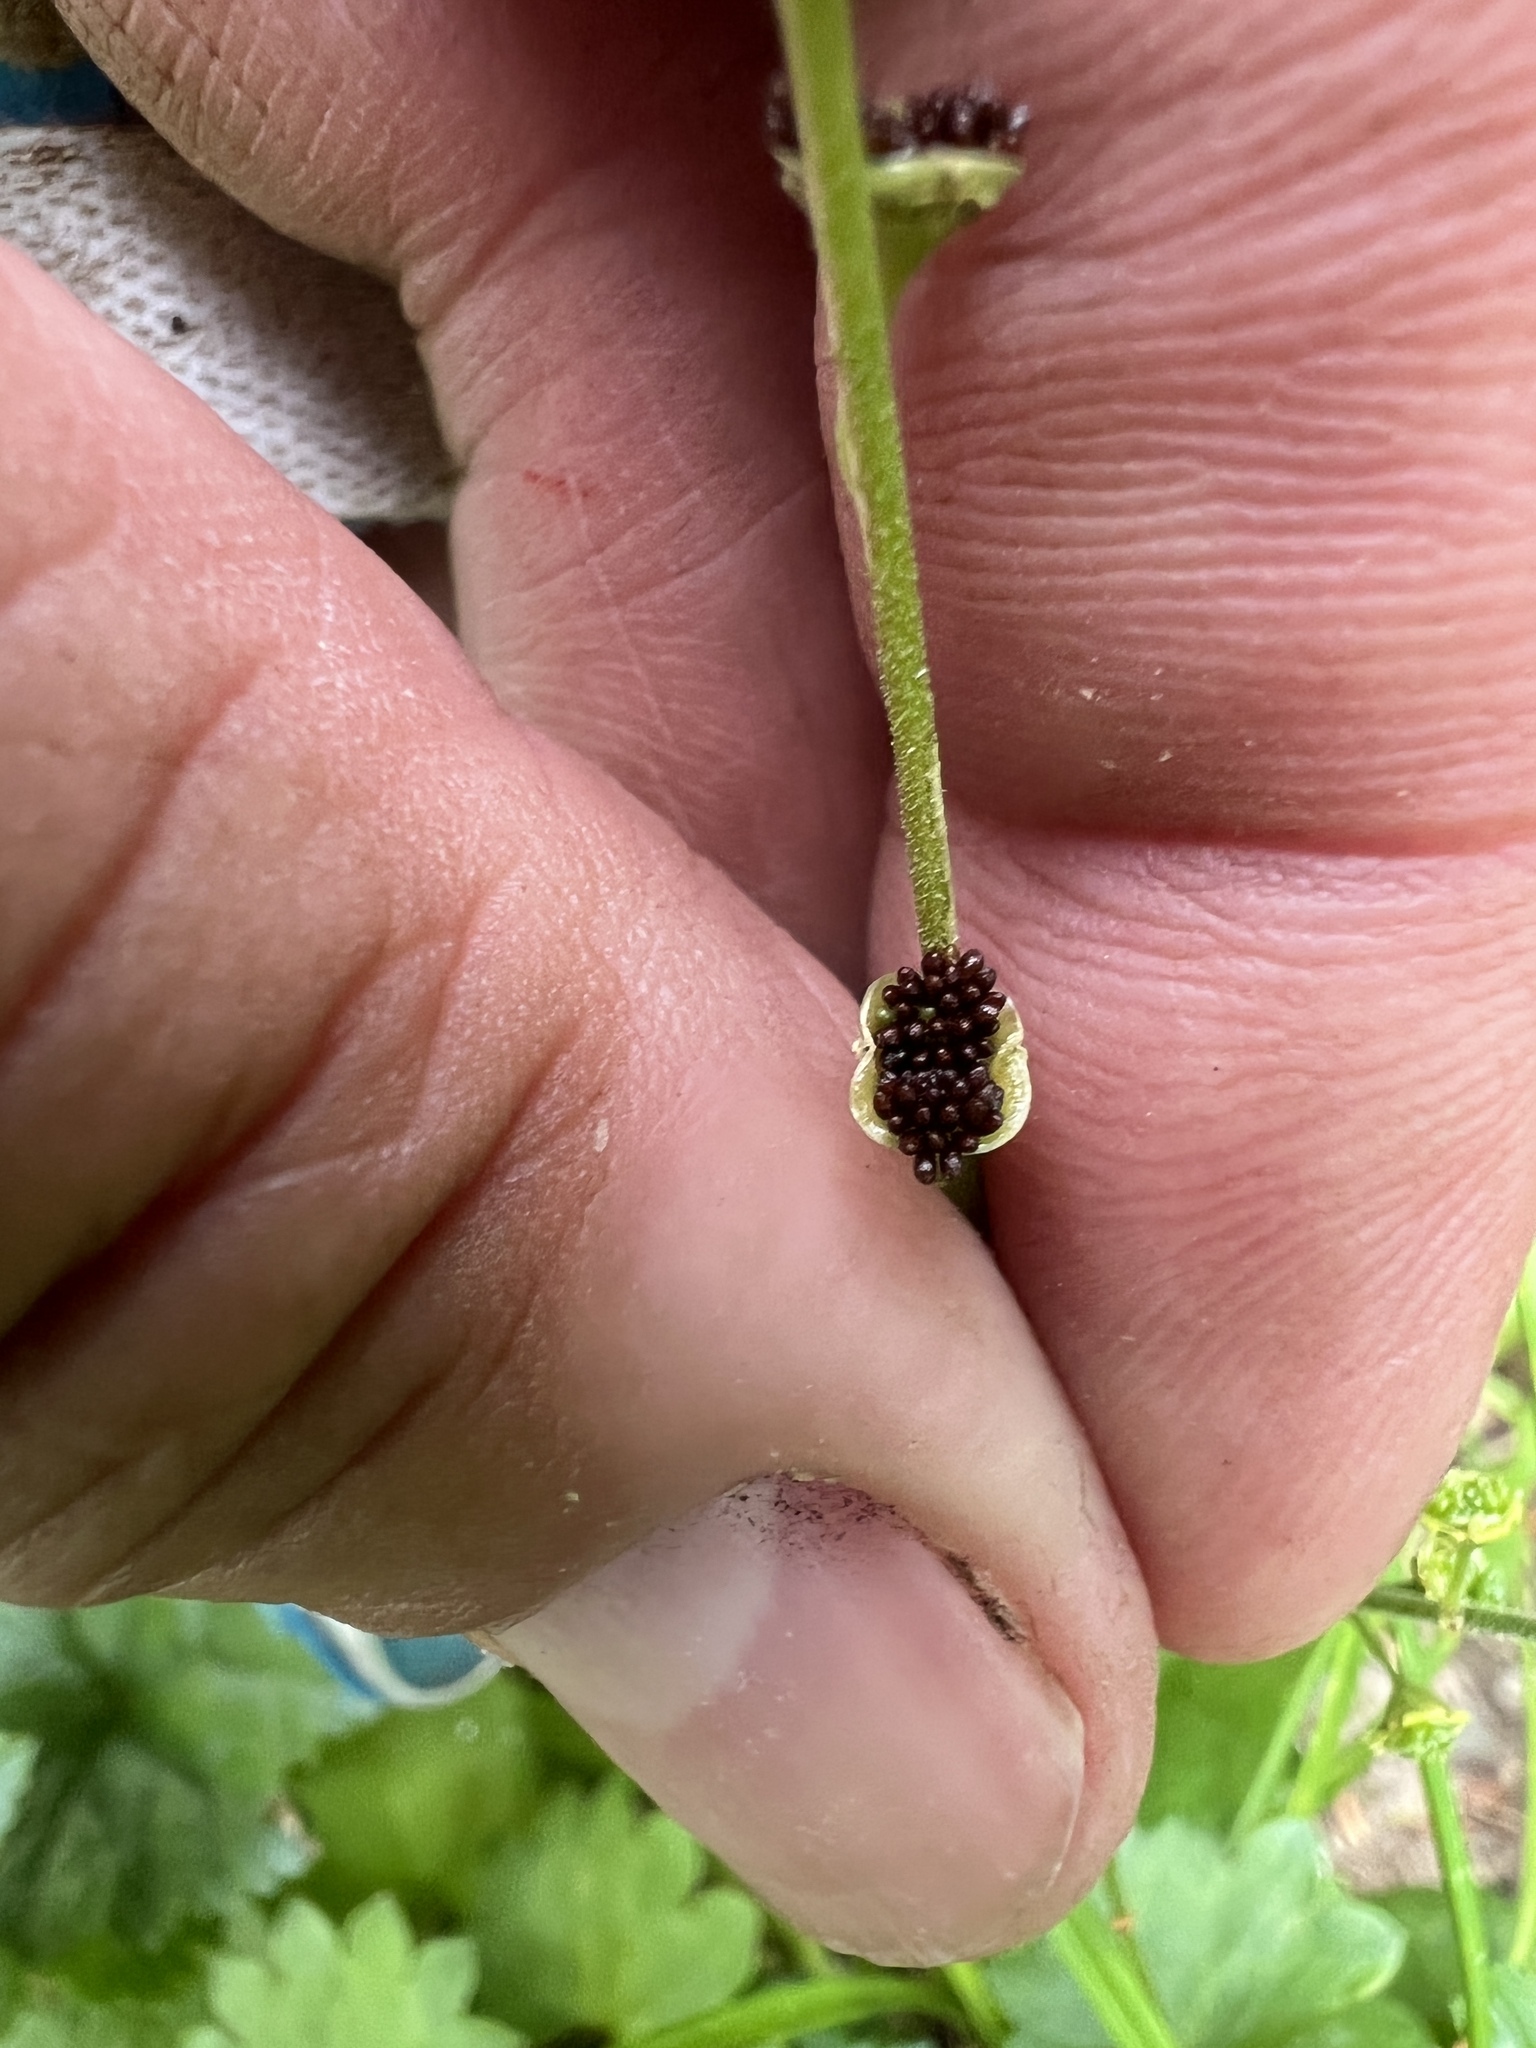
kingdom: Plantae
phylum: Tracheophyta
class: Magnoliopsida
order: Saxifragales
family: Saxifragaceae
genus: Pectiantia
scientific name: Pectiantia pentandra
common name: Alpine bishop's-cap
